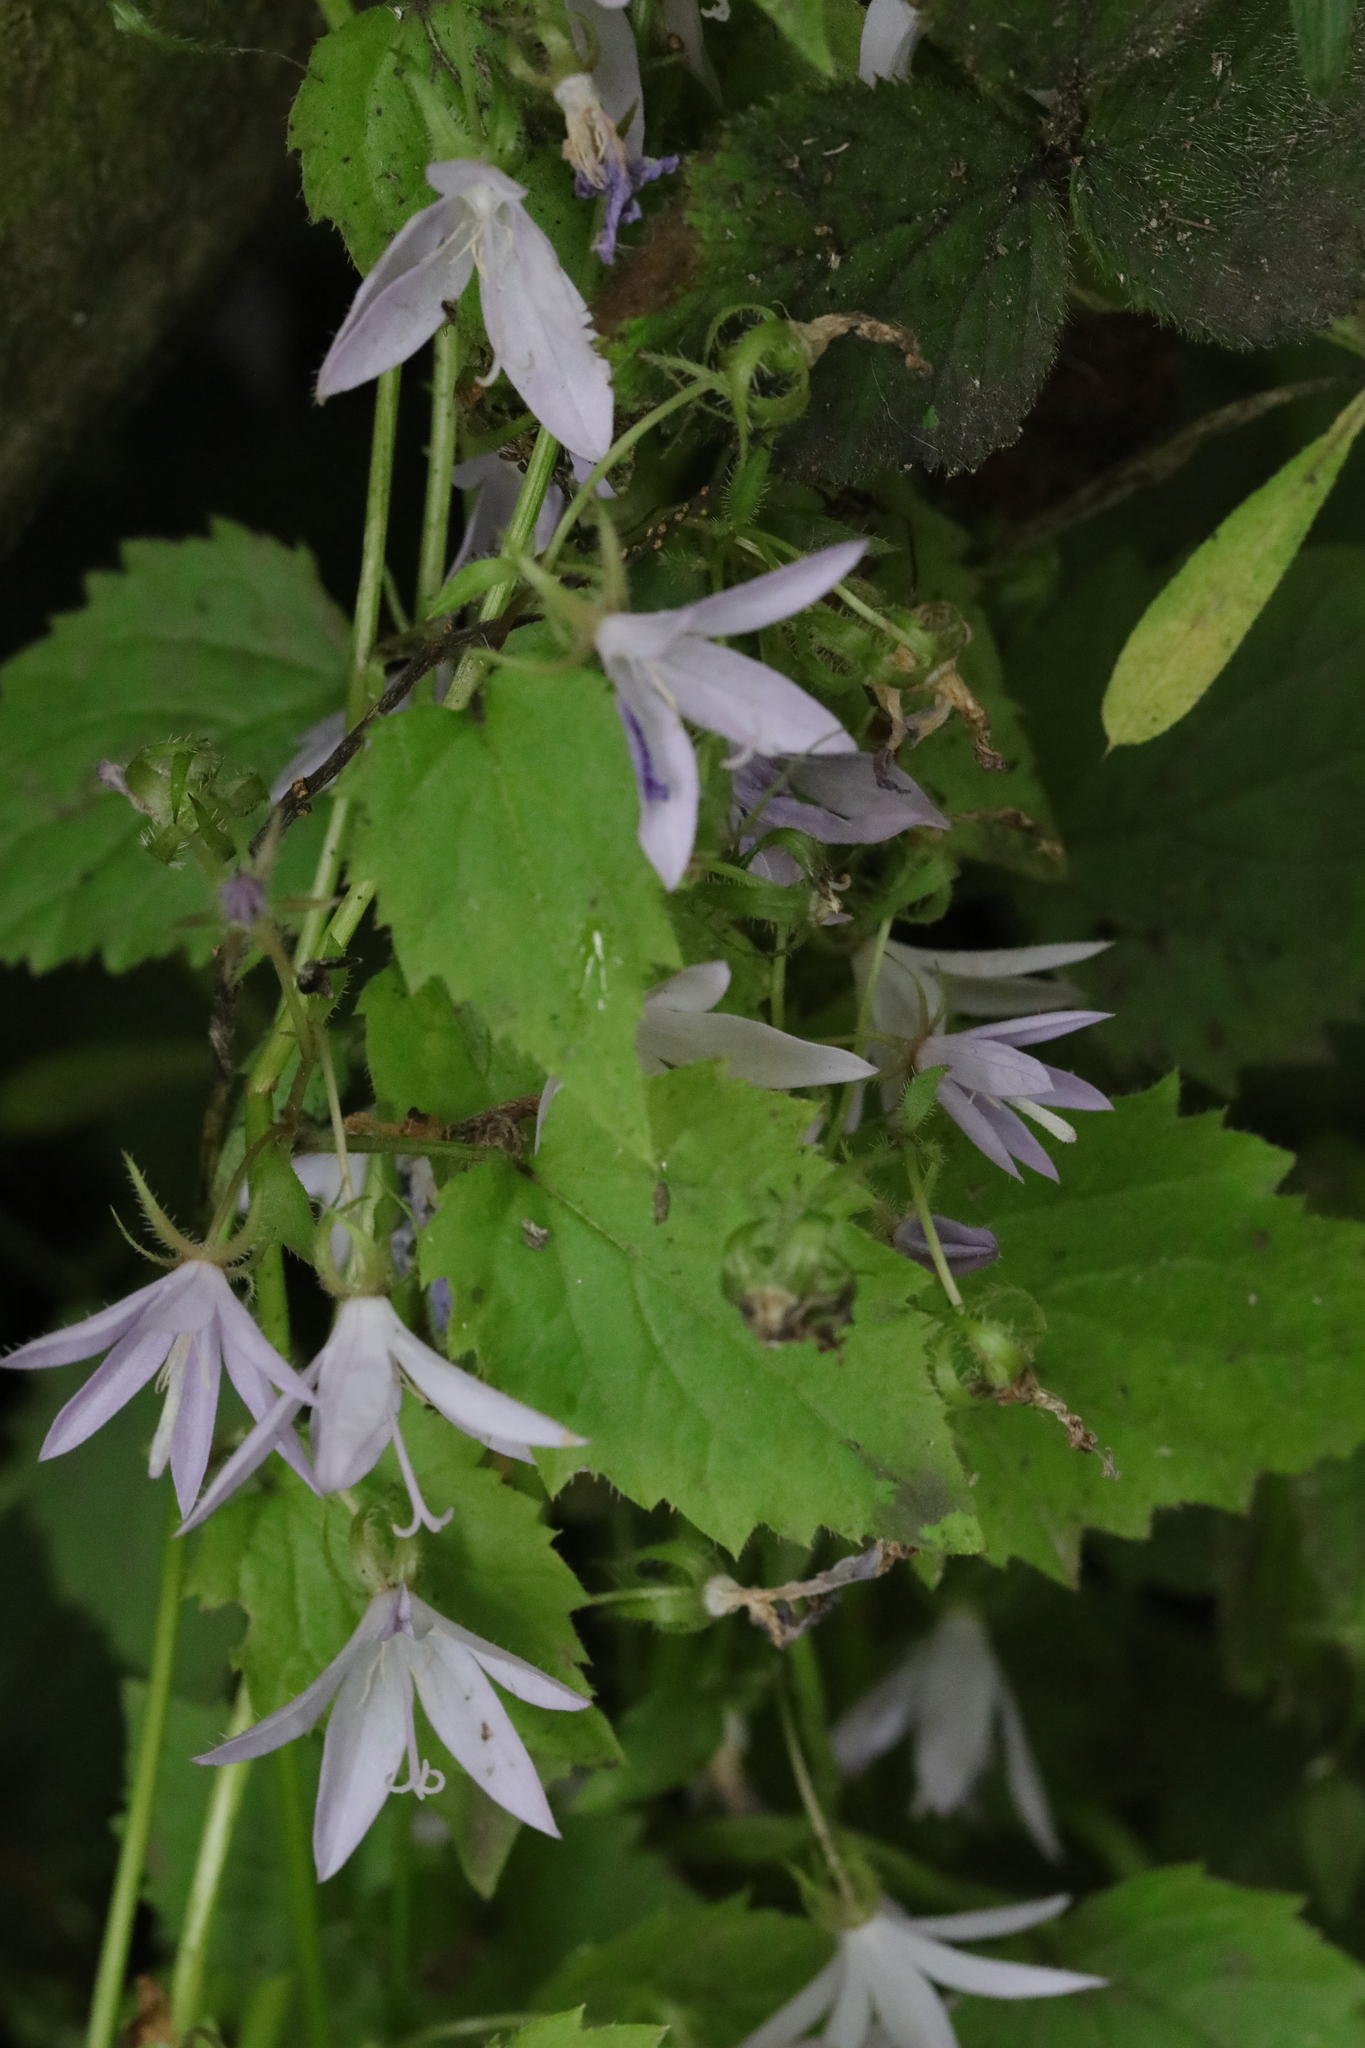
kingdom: Plantae
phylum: Tracheophyta
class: Magnoliopsida
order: Asterales
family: Campanulaceae
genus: Campanula
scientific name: Campanula poscharskyana
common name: Trailing bellflower
